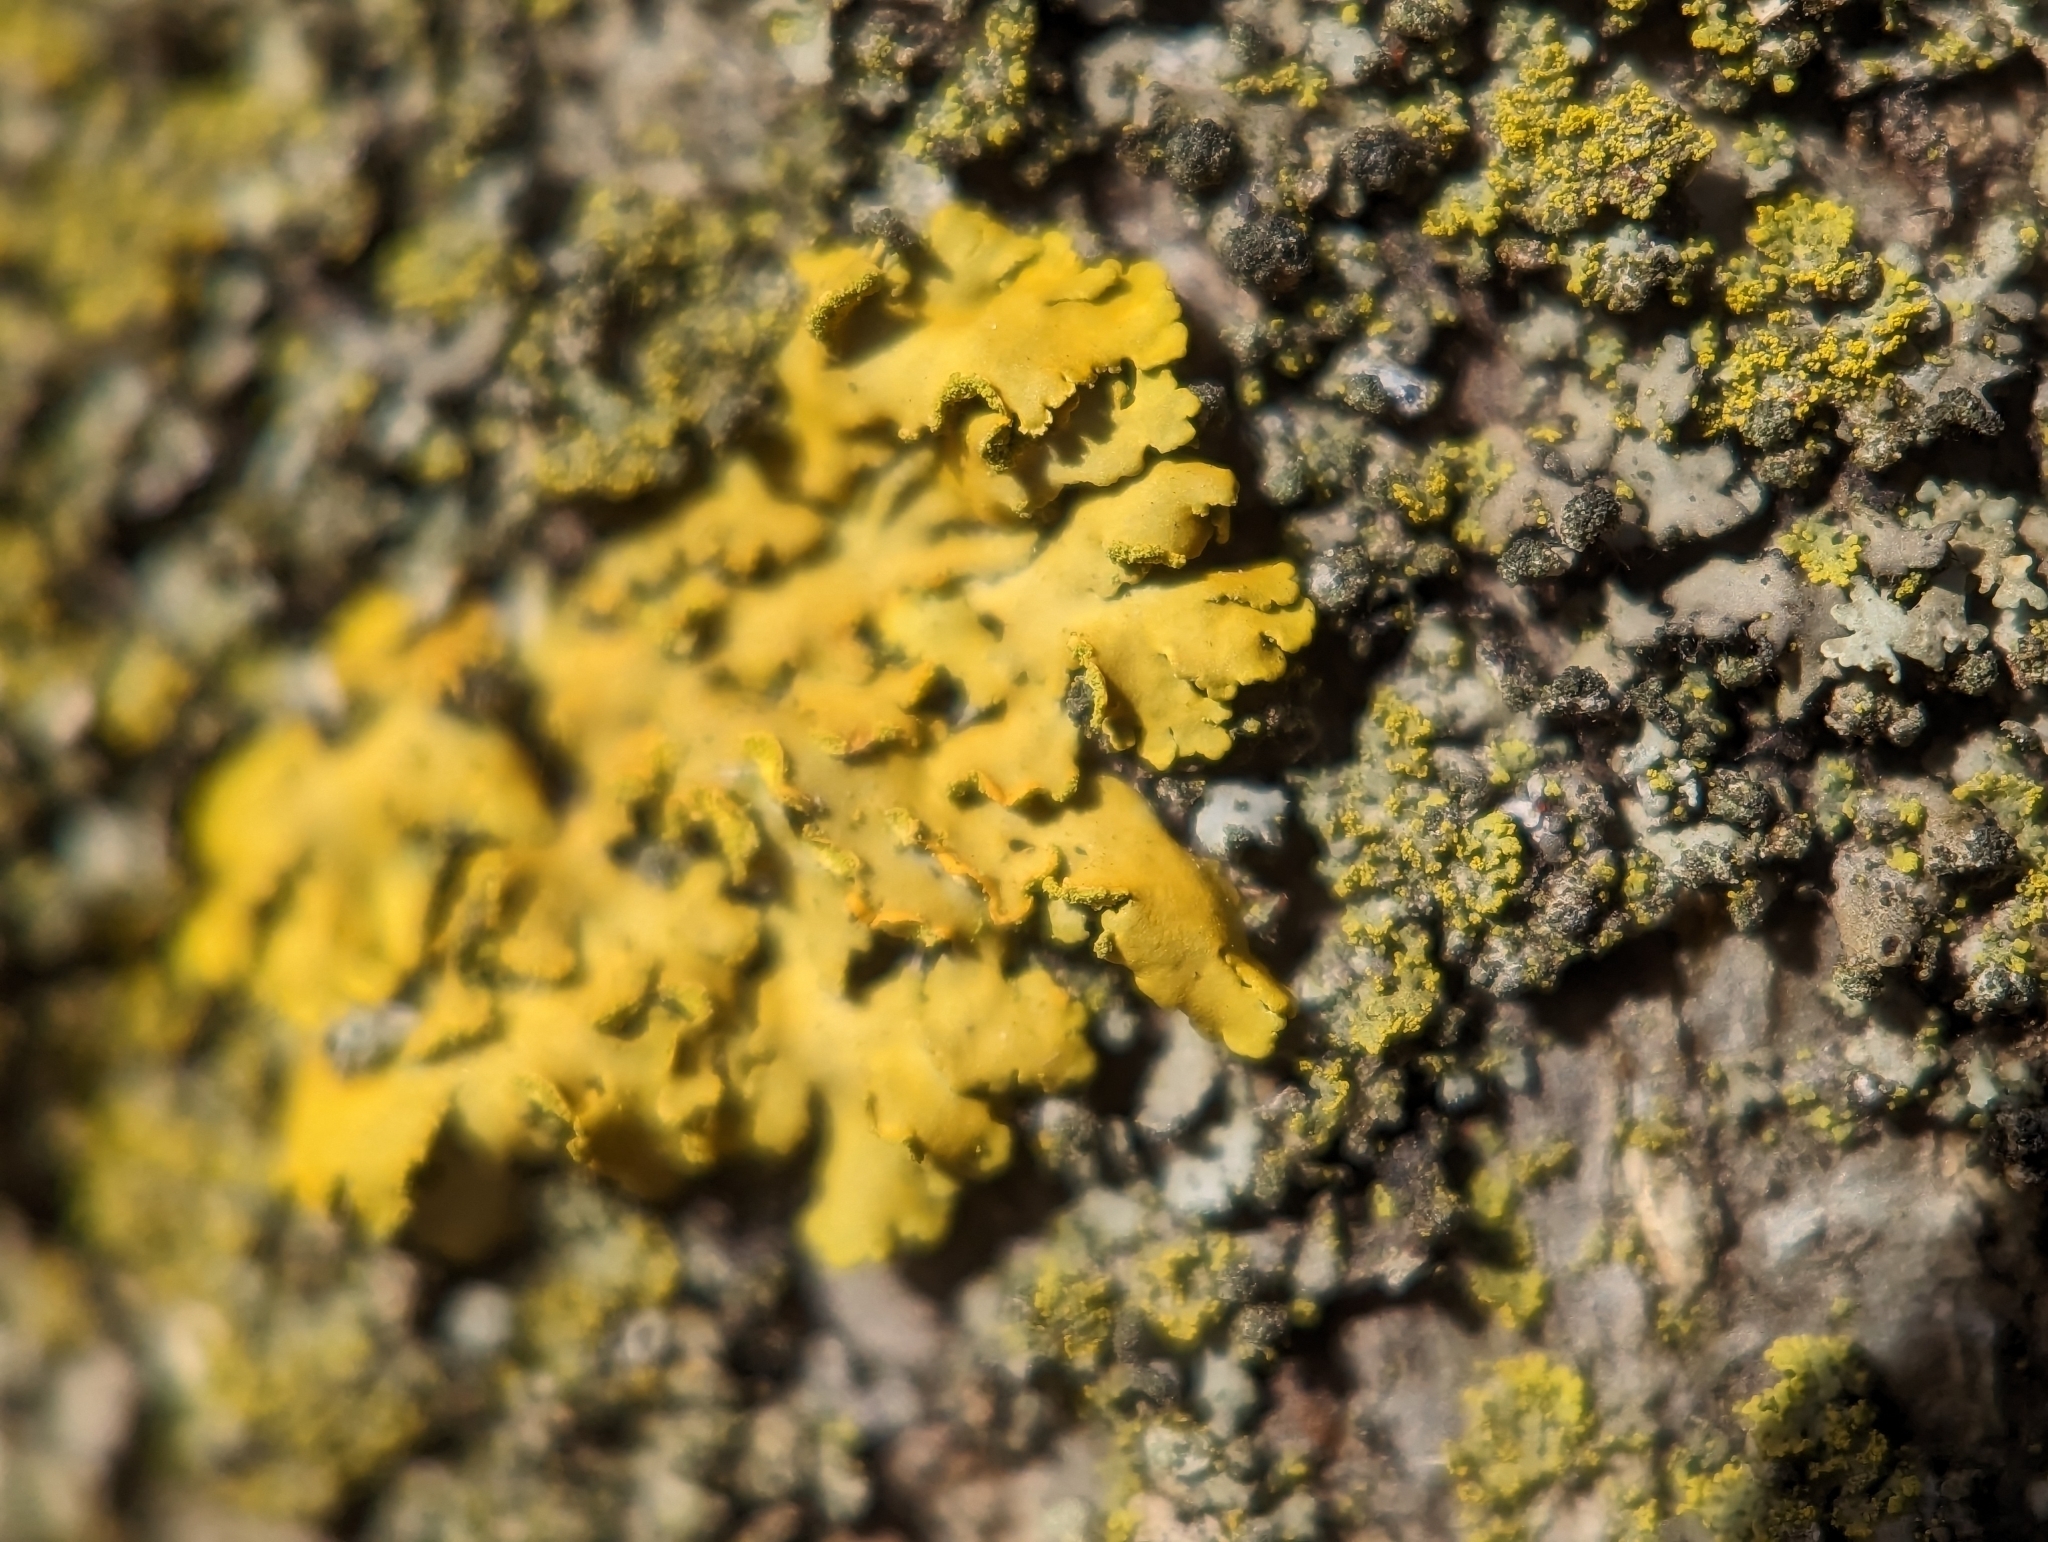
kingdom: Fungi
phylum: Ascomycota
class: Lecanoromycetes
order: Teloschistales
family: Teloschistaceae
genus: Oxneria
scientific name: Oxneria fallax
